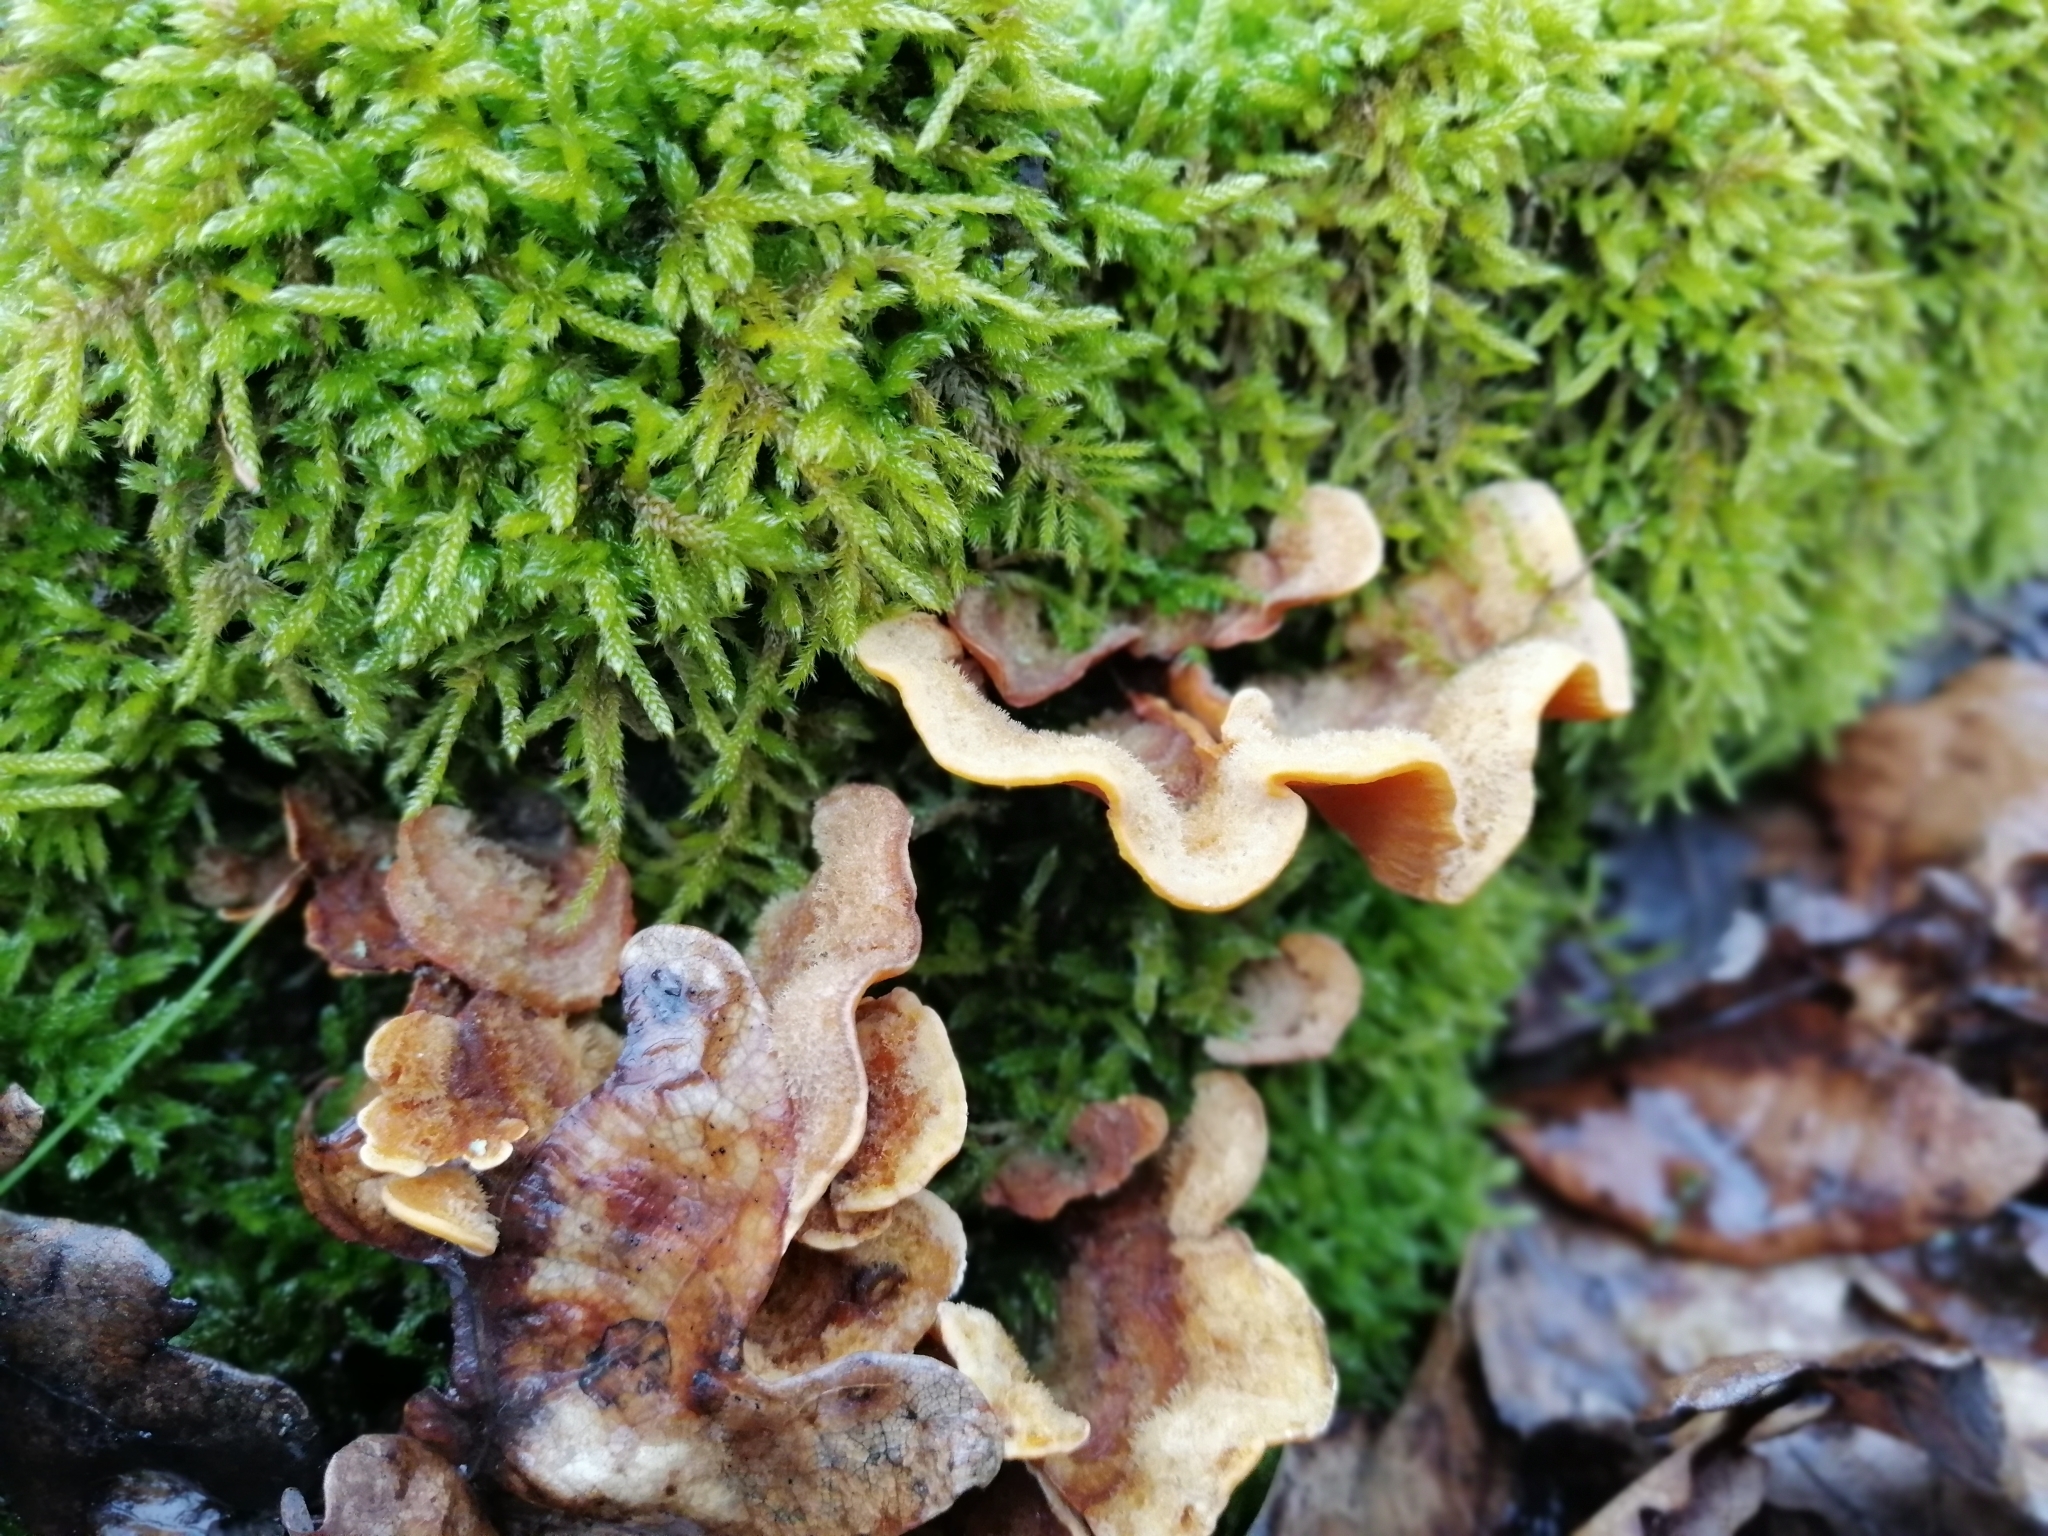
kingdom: Fungi
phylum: Basidiomycota
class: Agaricomycetes
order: Russulales
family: Stereaceae
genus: Stereum
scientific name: Stereum hirsutum
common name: Hairy curtain crust
